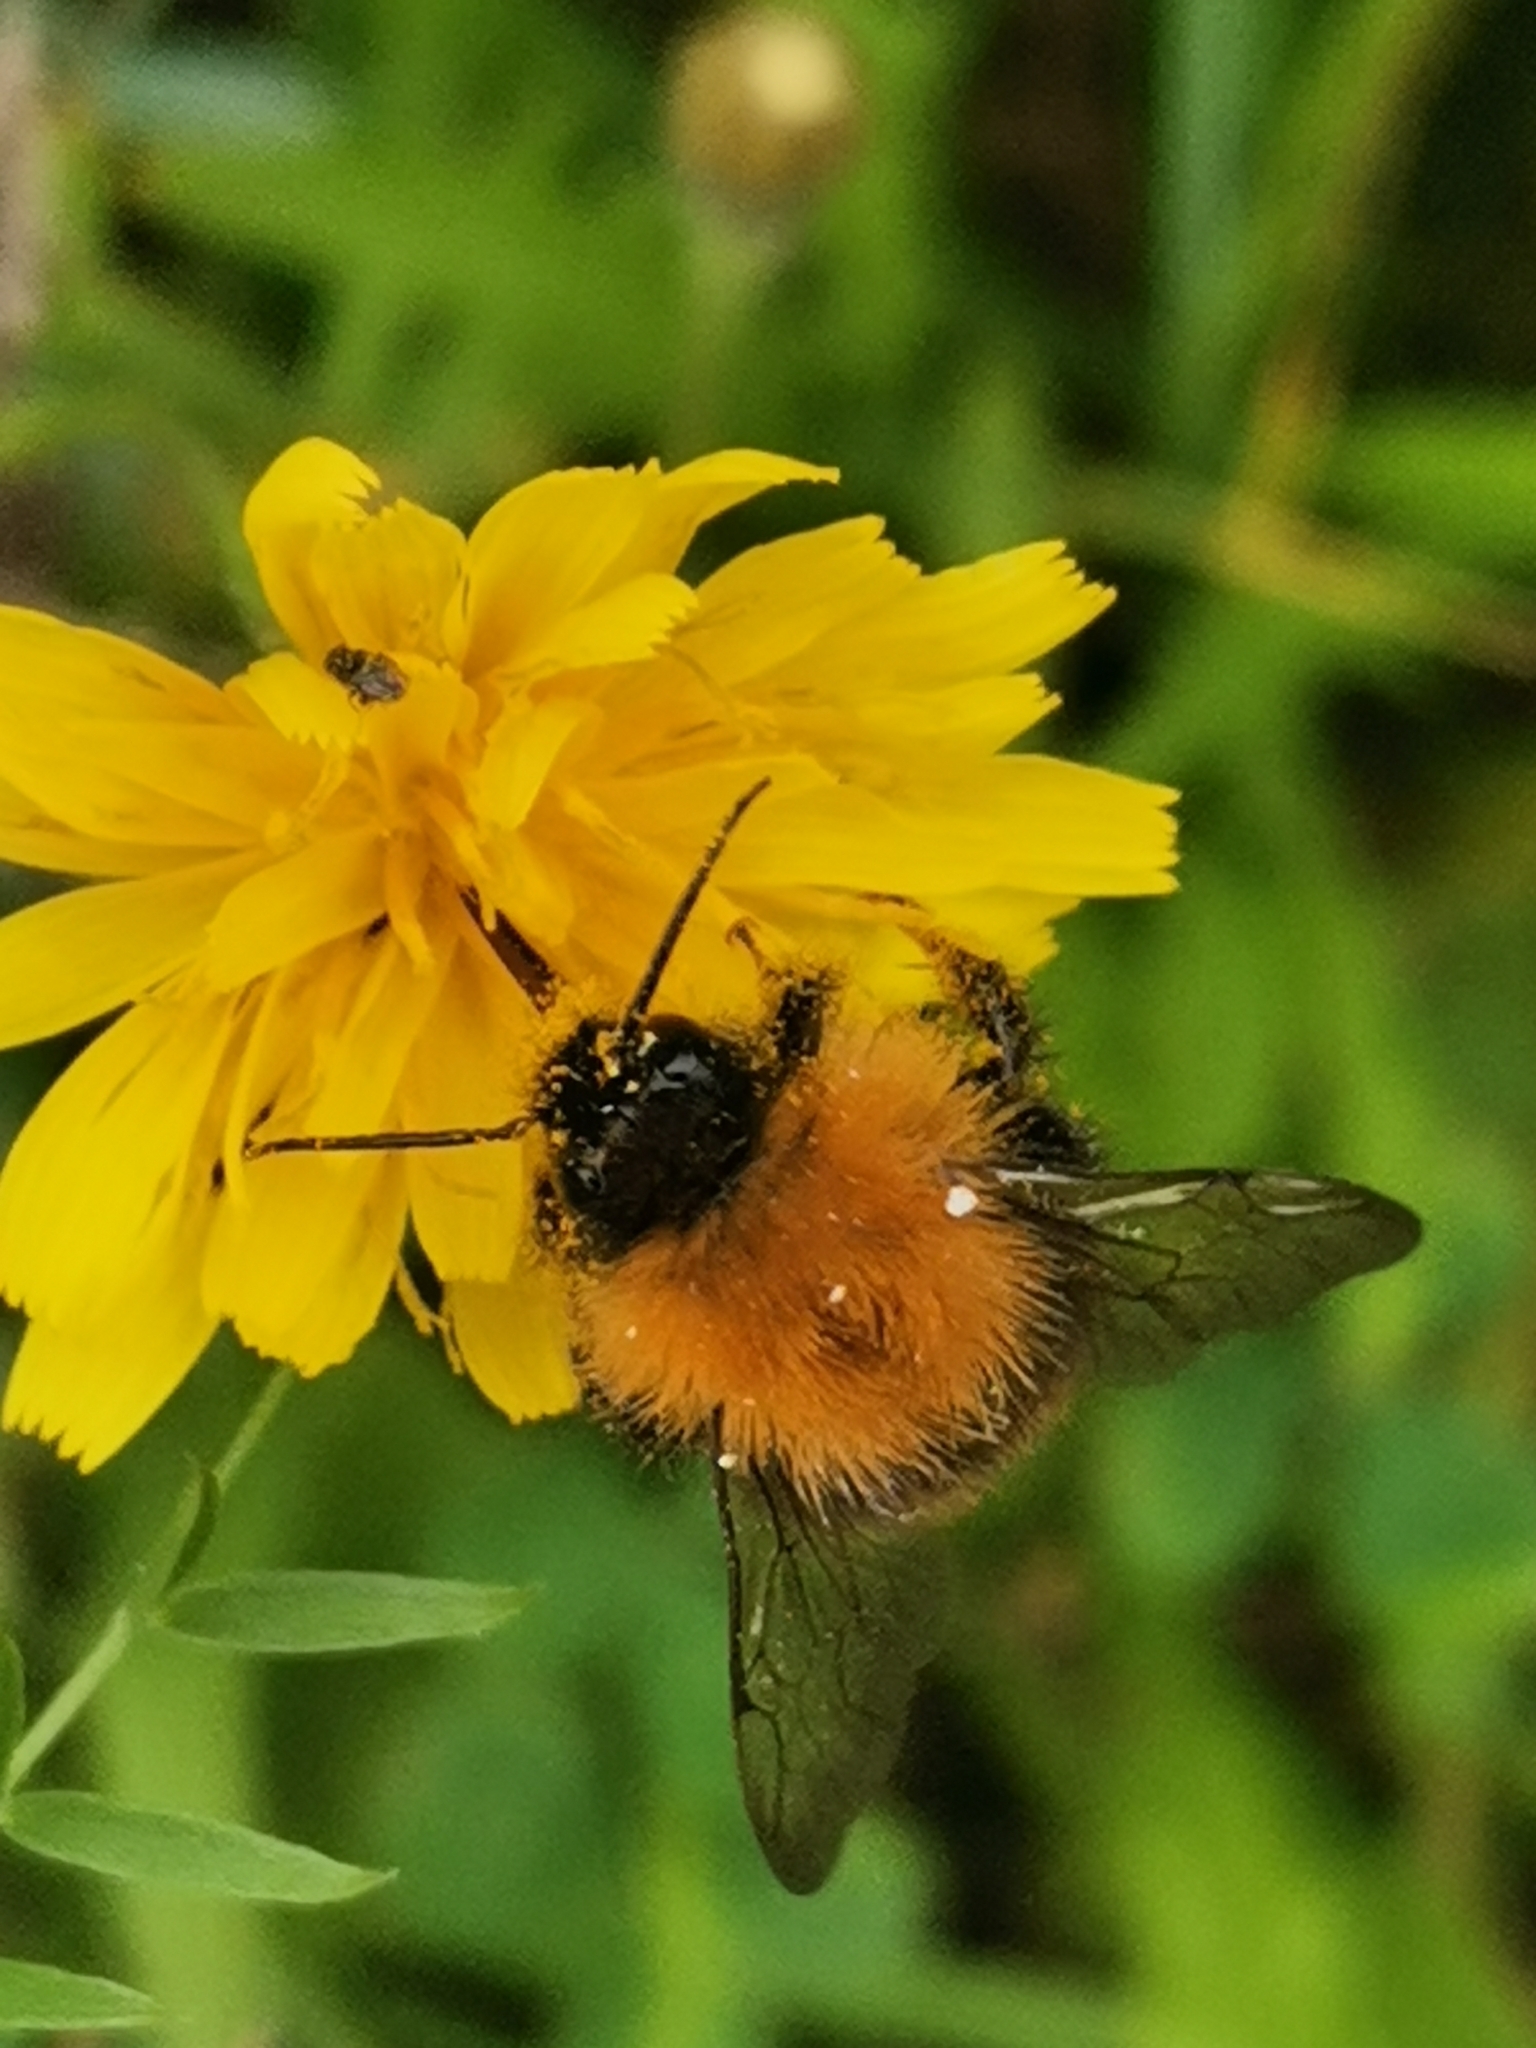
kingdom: Animalia
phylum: Arthropoda
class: Insecta
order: Hymenoptera
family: Apidae
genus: Bombus
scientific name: Bombus pascuorum
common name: Common carder bee
